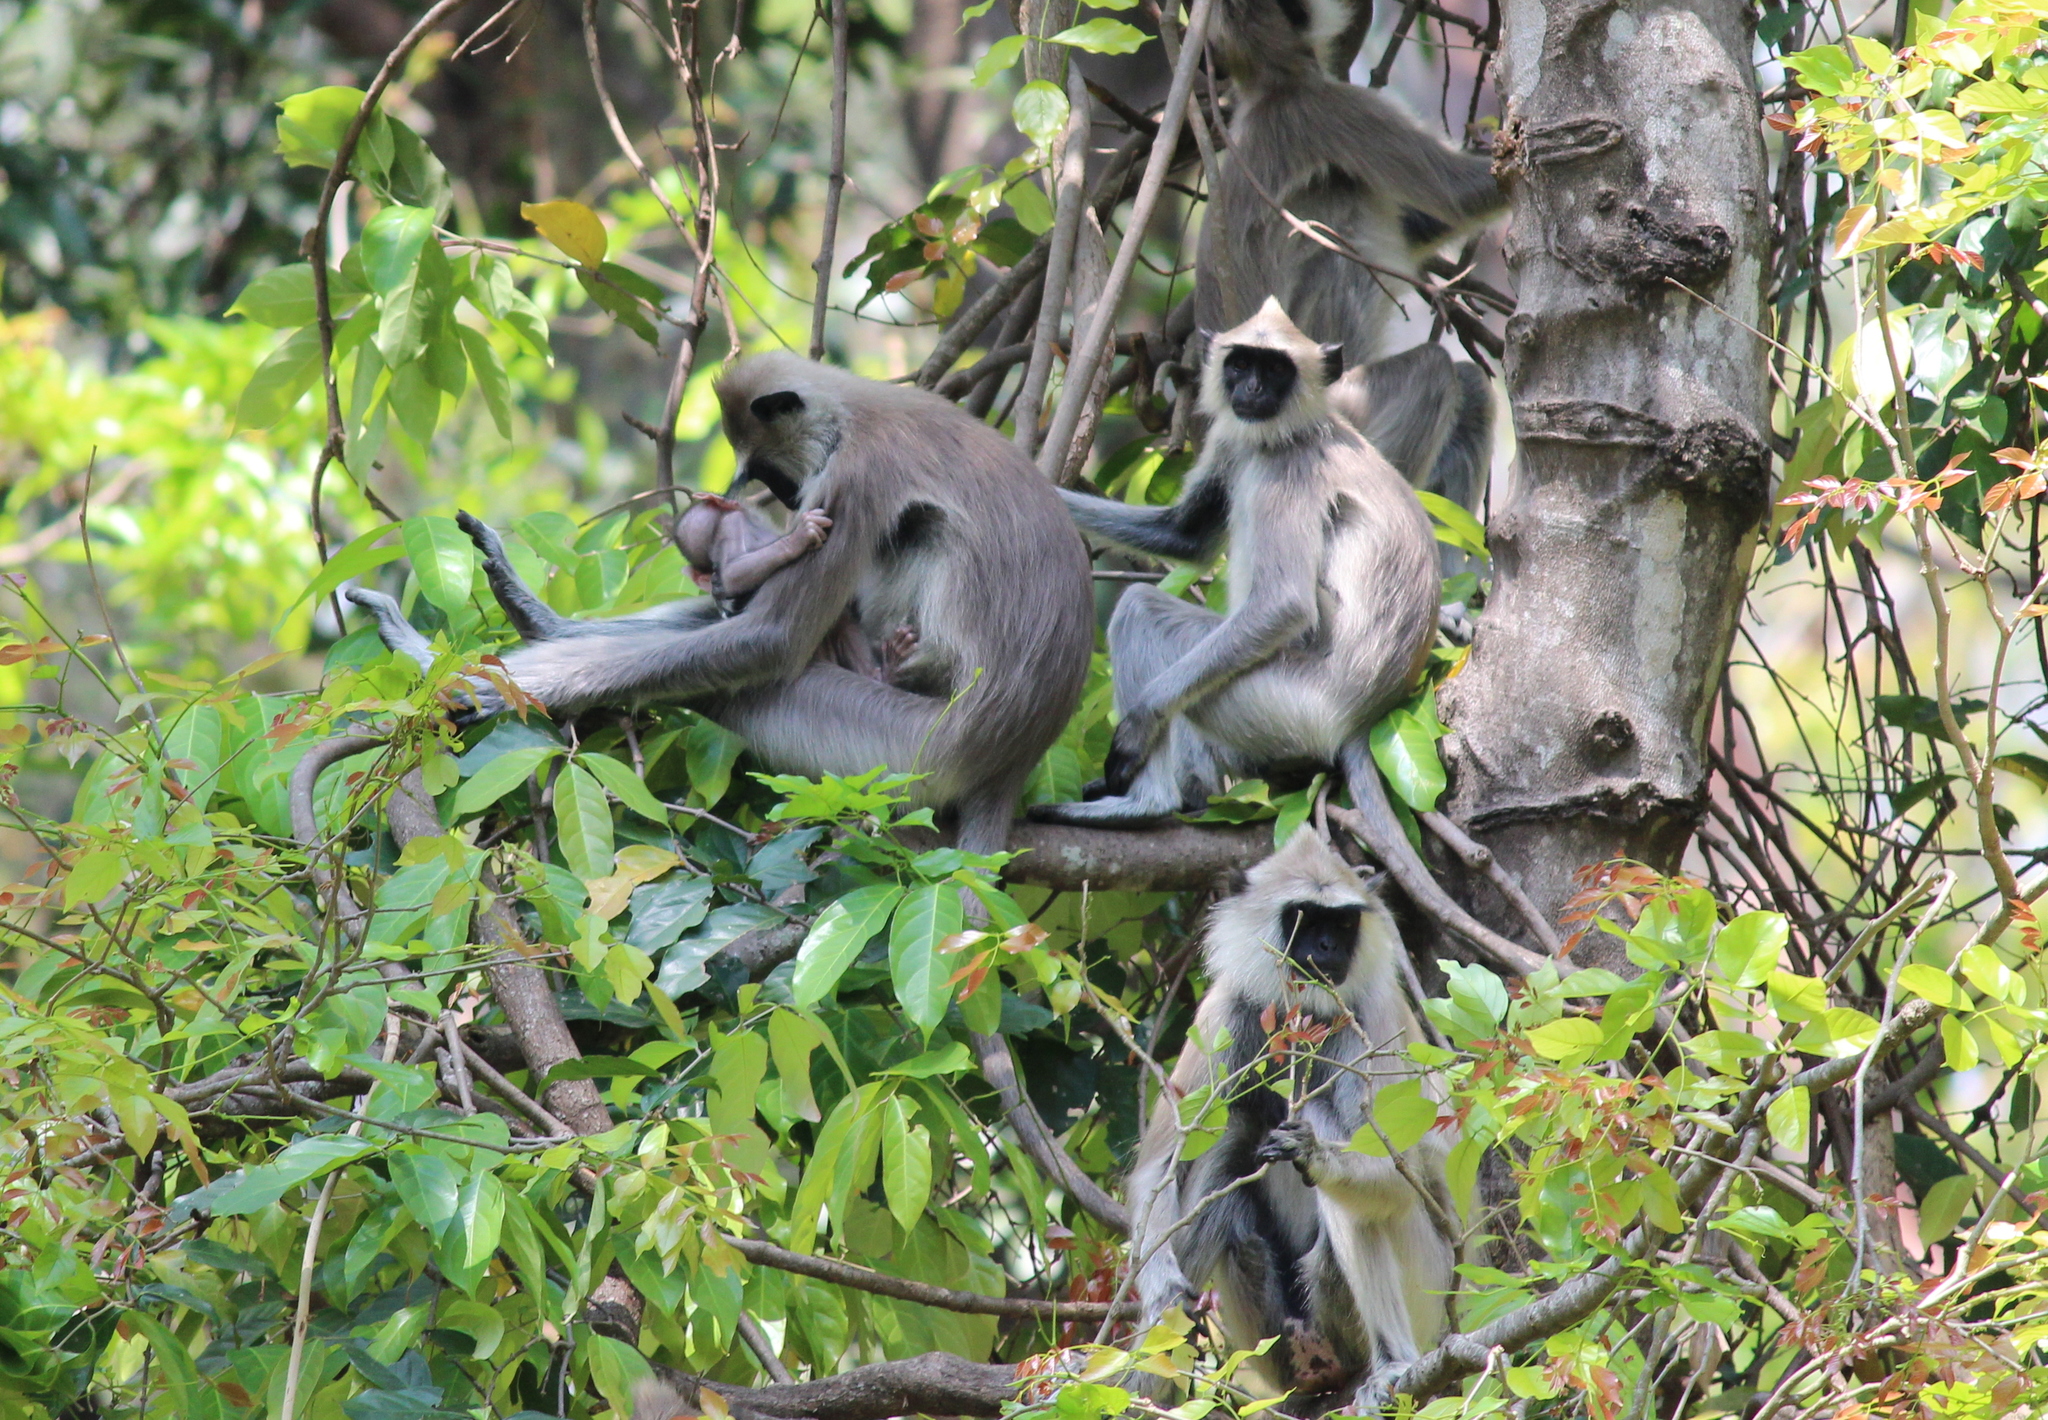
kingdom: Animalia
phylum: Chordata
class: Mammalia
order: Primates
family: Cercopithecidae
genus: Semnopithecus
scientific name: Semnopithecus priam
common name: Tufted gray langur
